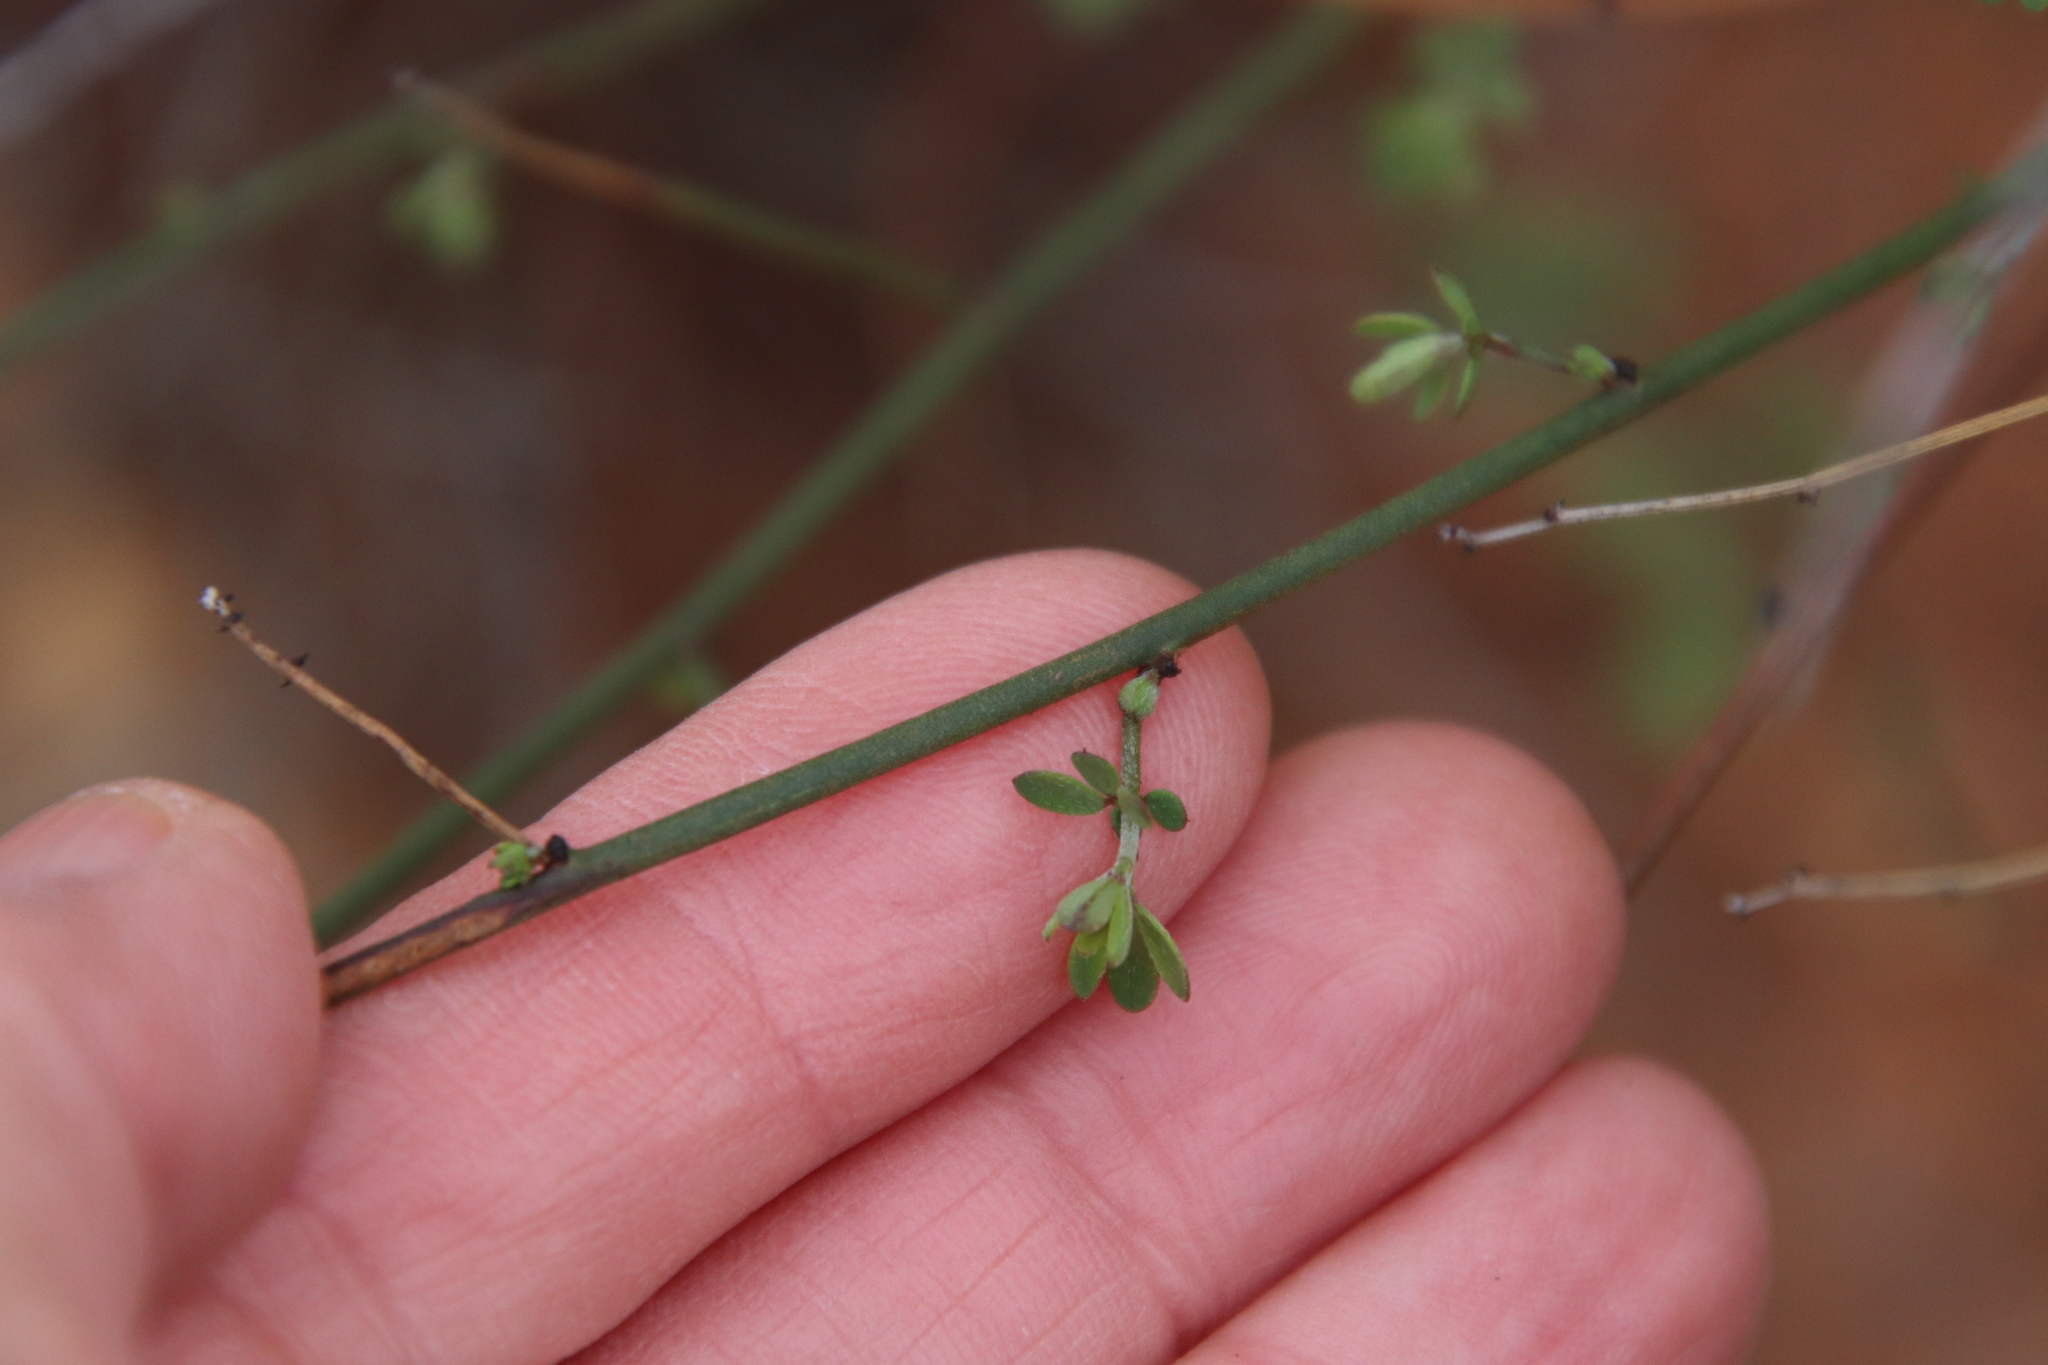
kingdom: Plantae
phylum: Tracheophyta
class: Magnoliopsida
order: Fabales
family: Fabaceae
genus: Acmispon
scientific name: Acmispon glaber
